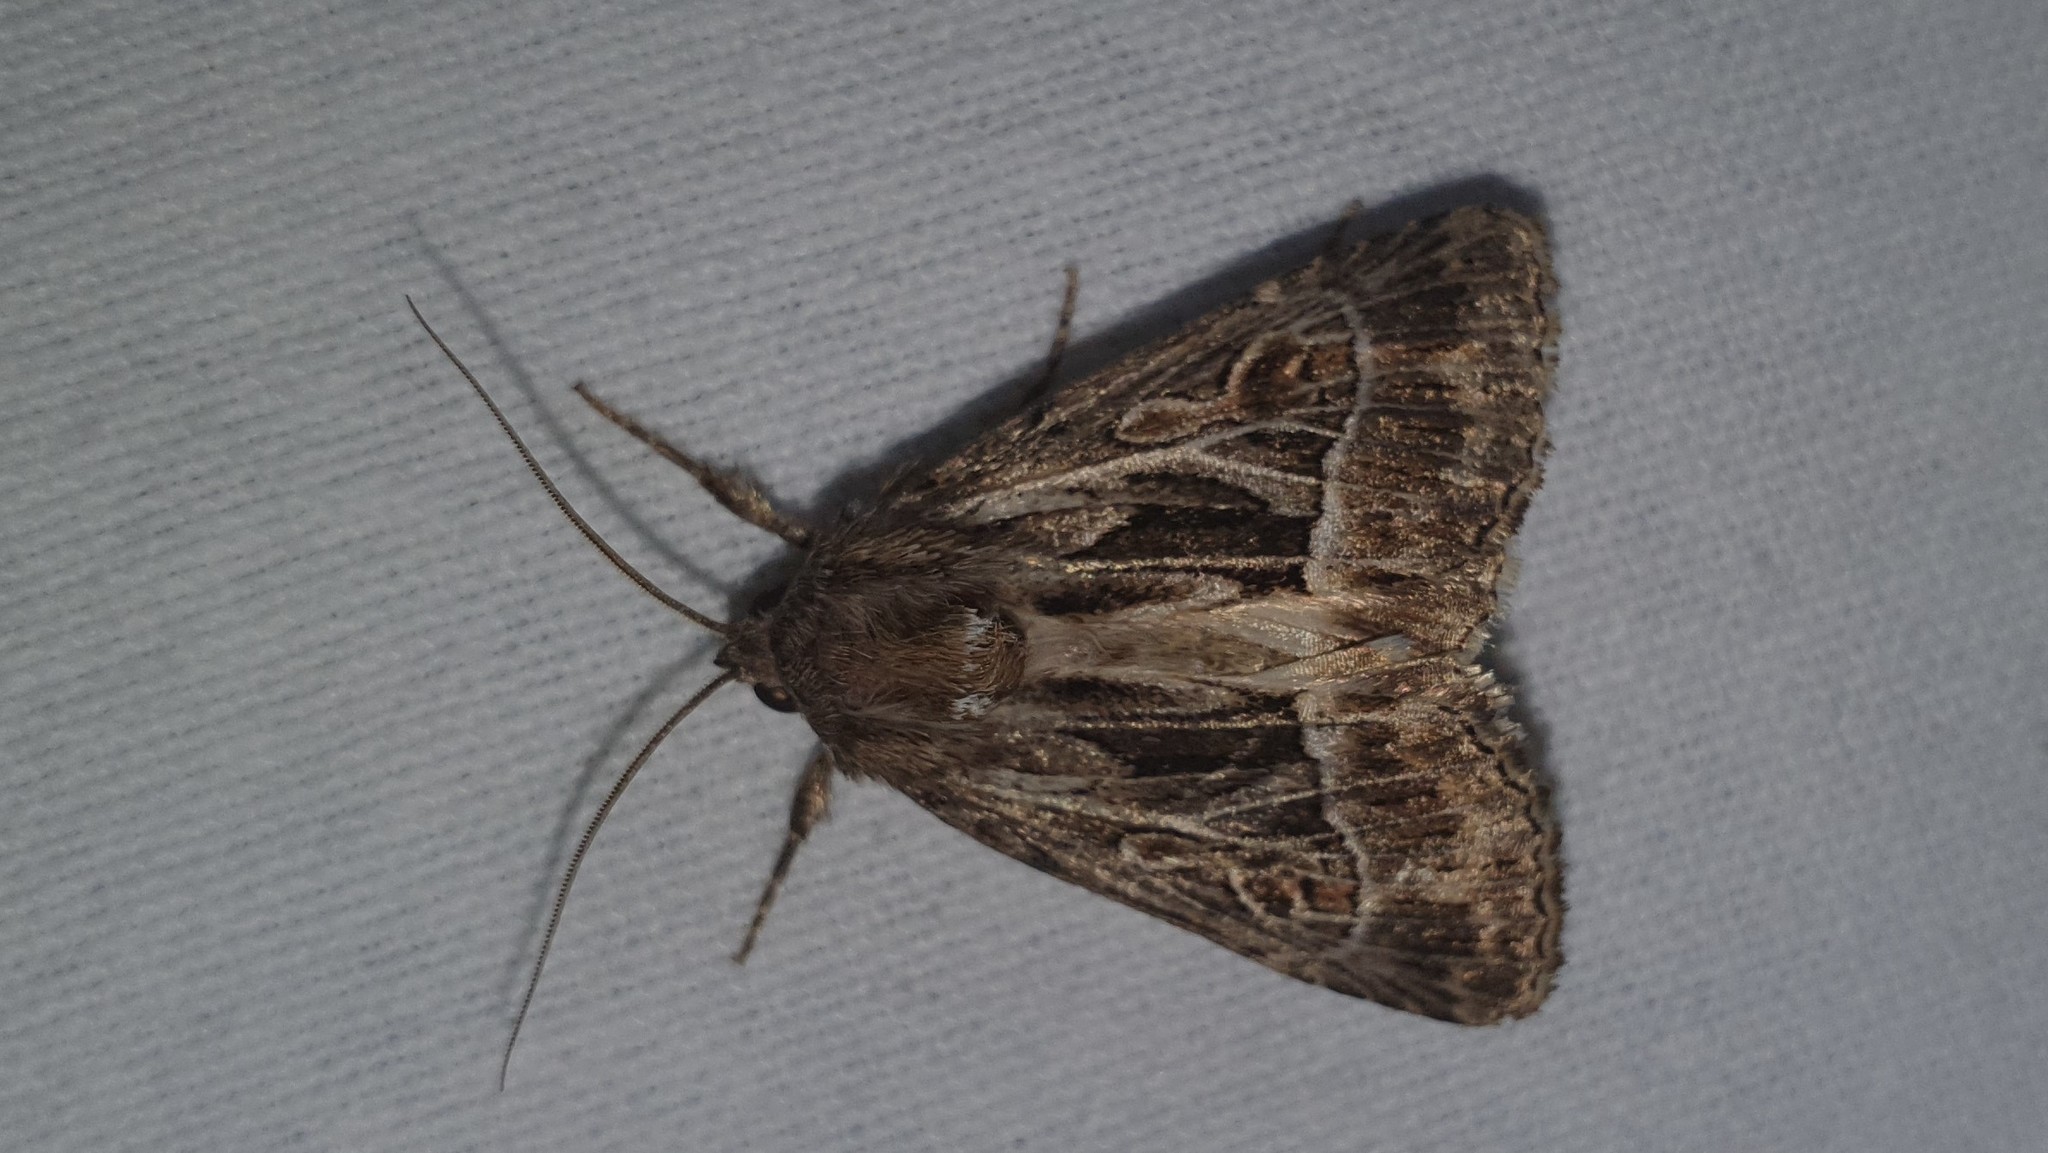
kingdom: Animalia
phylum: Arthropoda
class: Insecta
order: Lepidoptera
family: Noctuidae
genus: Thalpophila
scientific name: Thalpophila vitalba
